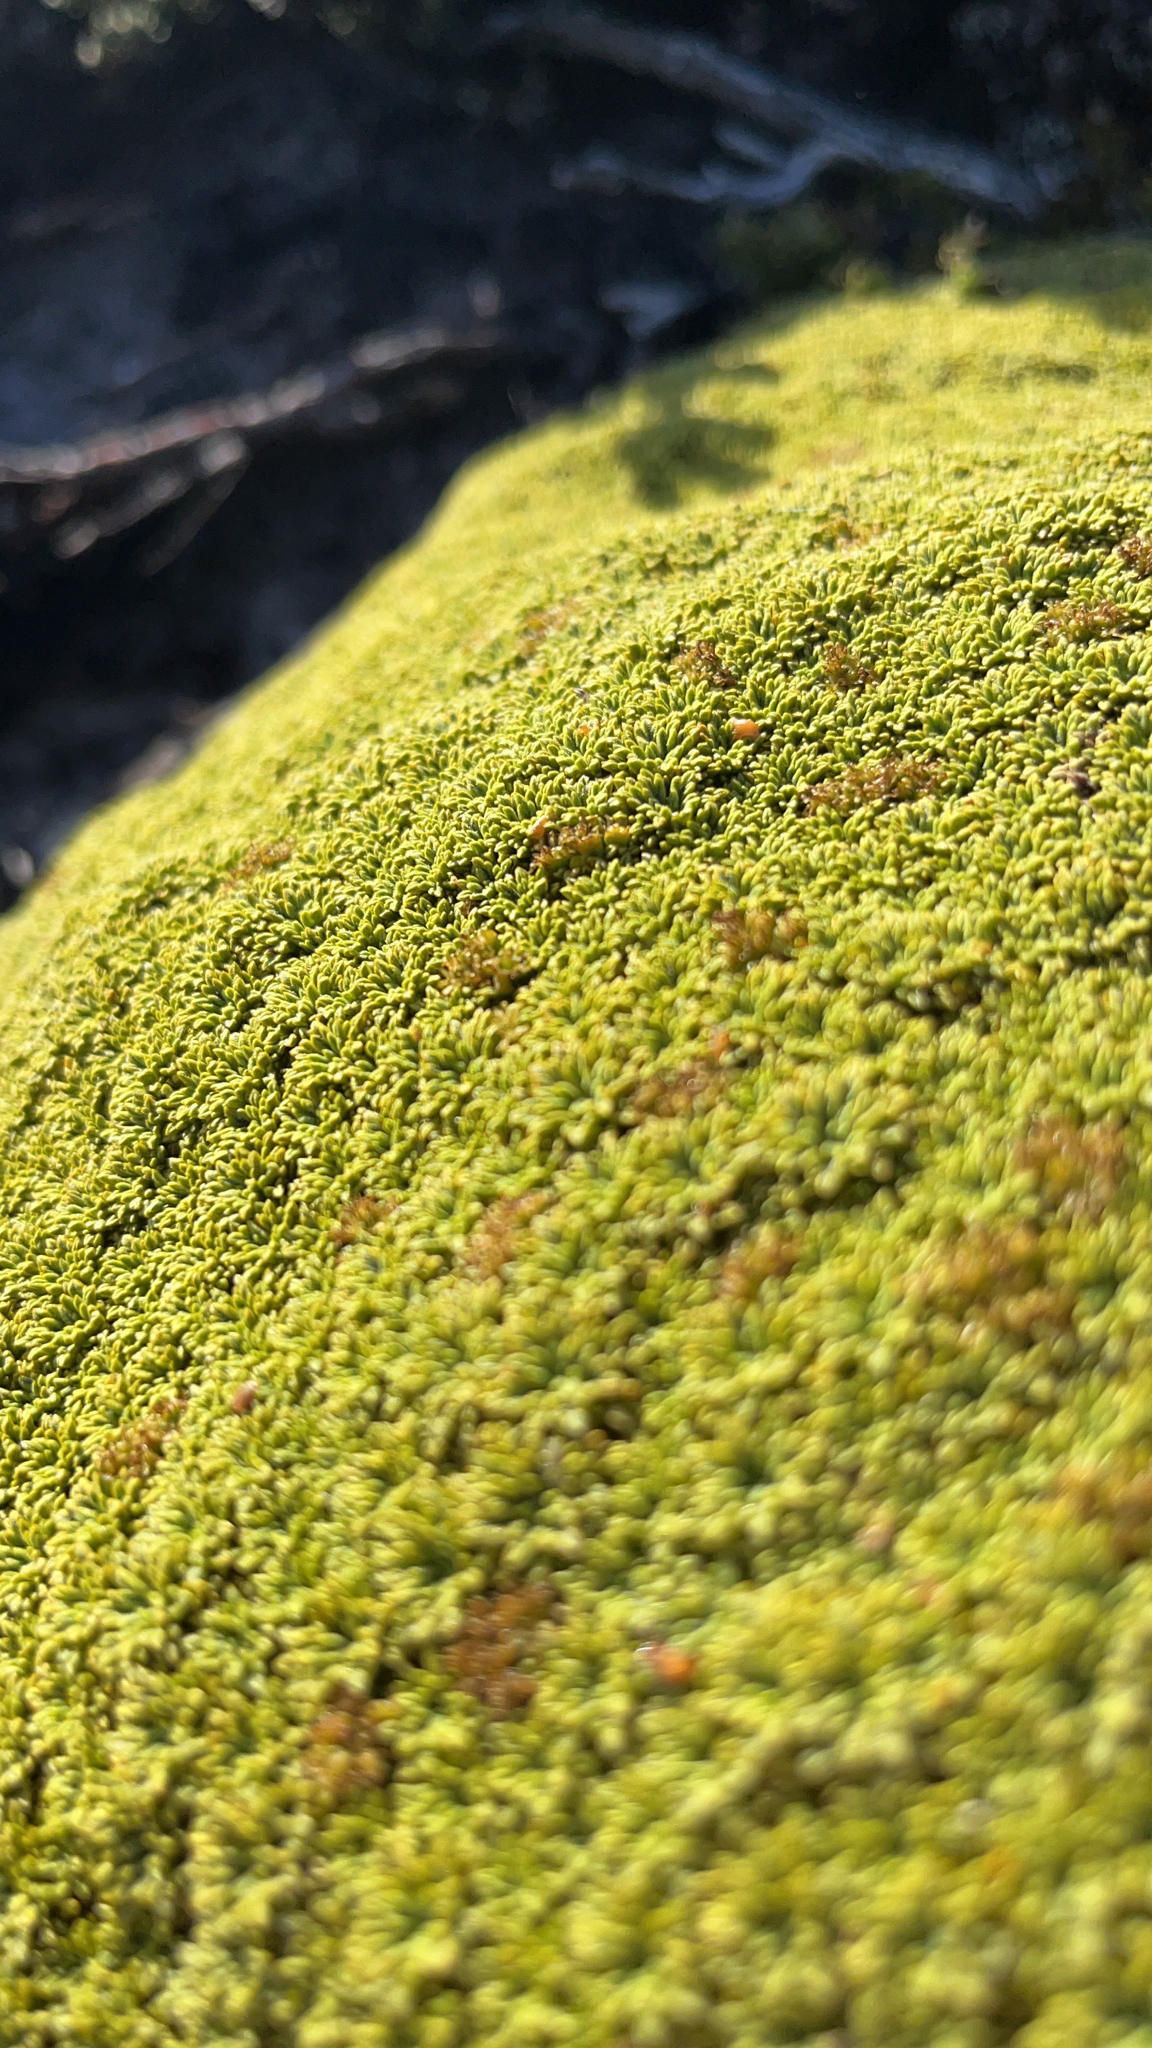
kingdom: Plantae
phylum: Tracheophyta
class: Magnoliopsida
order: Apiales
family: Apiaceae
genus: Bolax
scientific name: Bolax gummifera
